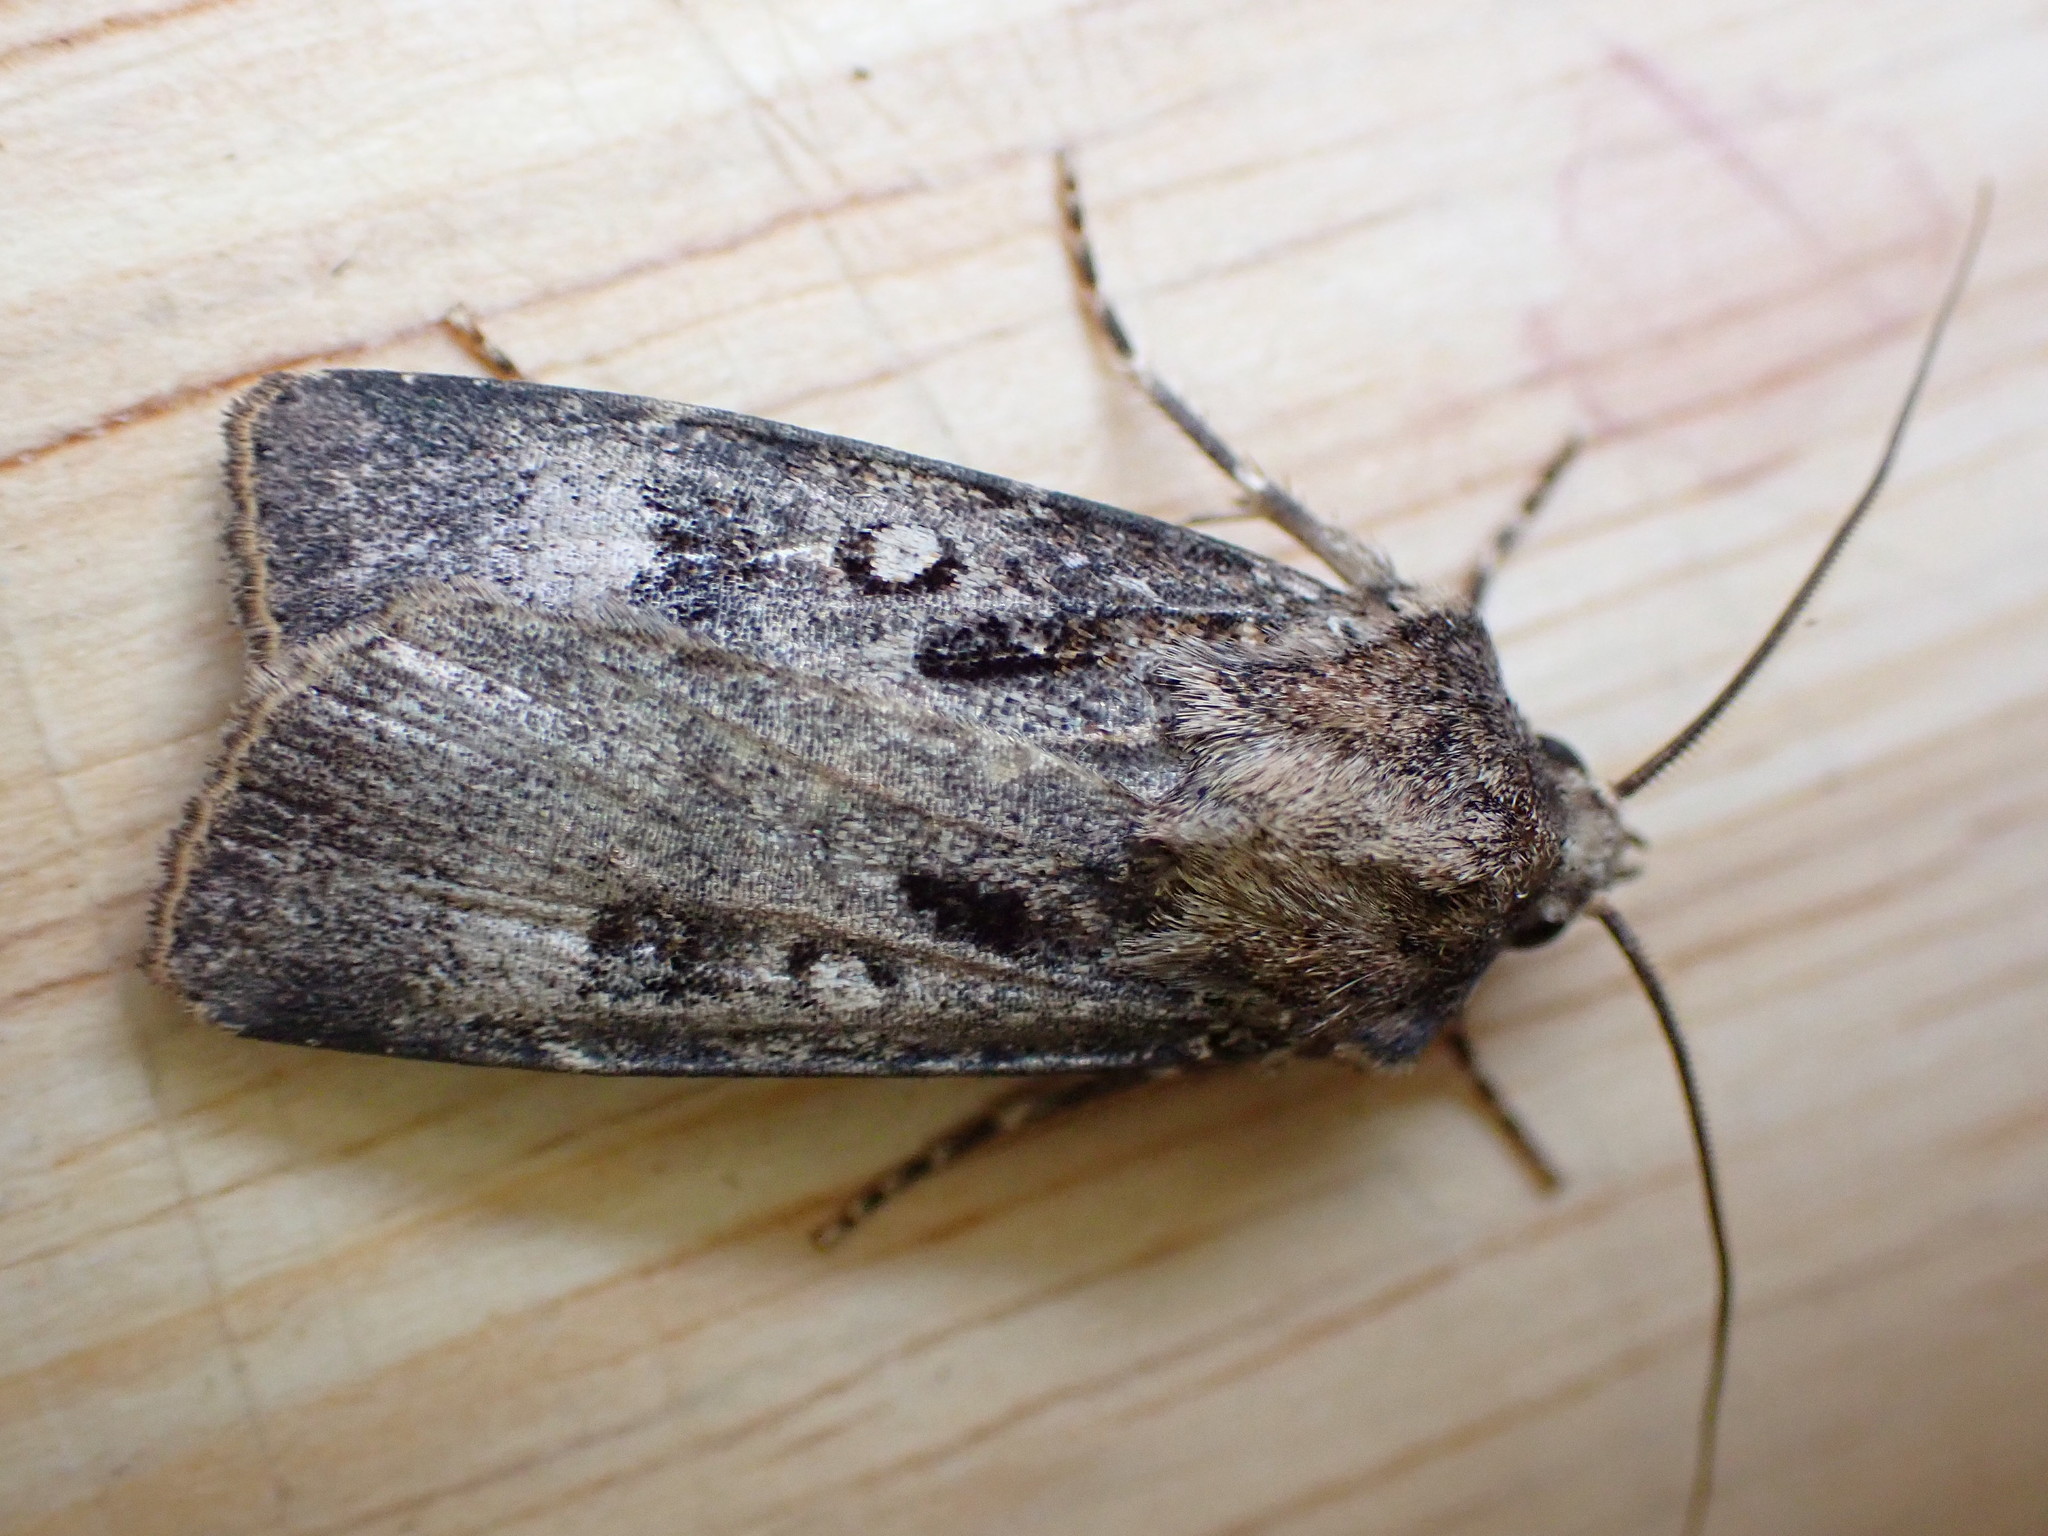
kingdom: Animalia
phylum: Arthropoda
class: Insecta
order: Lepidoptera
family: Noctuidae
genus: Agrotis
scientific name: Agrotis trux
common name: Crescent dart
